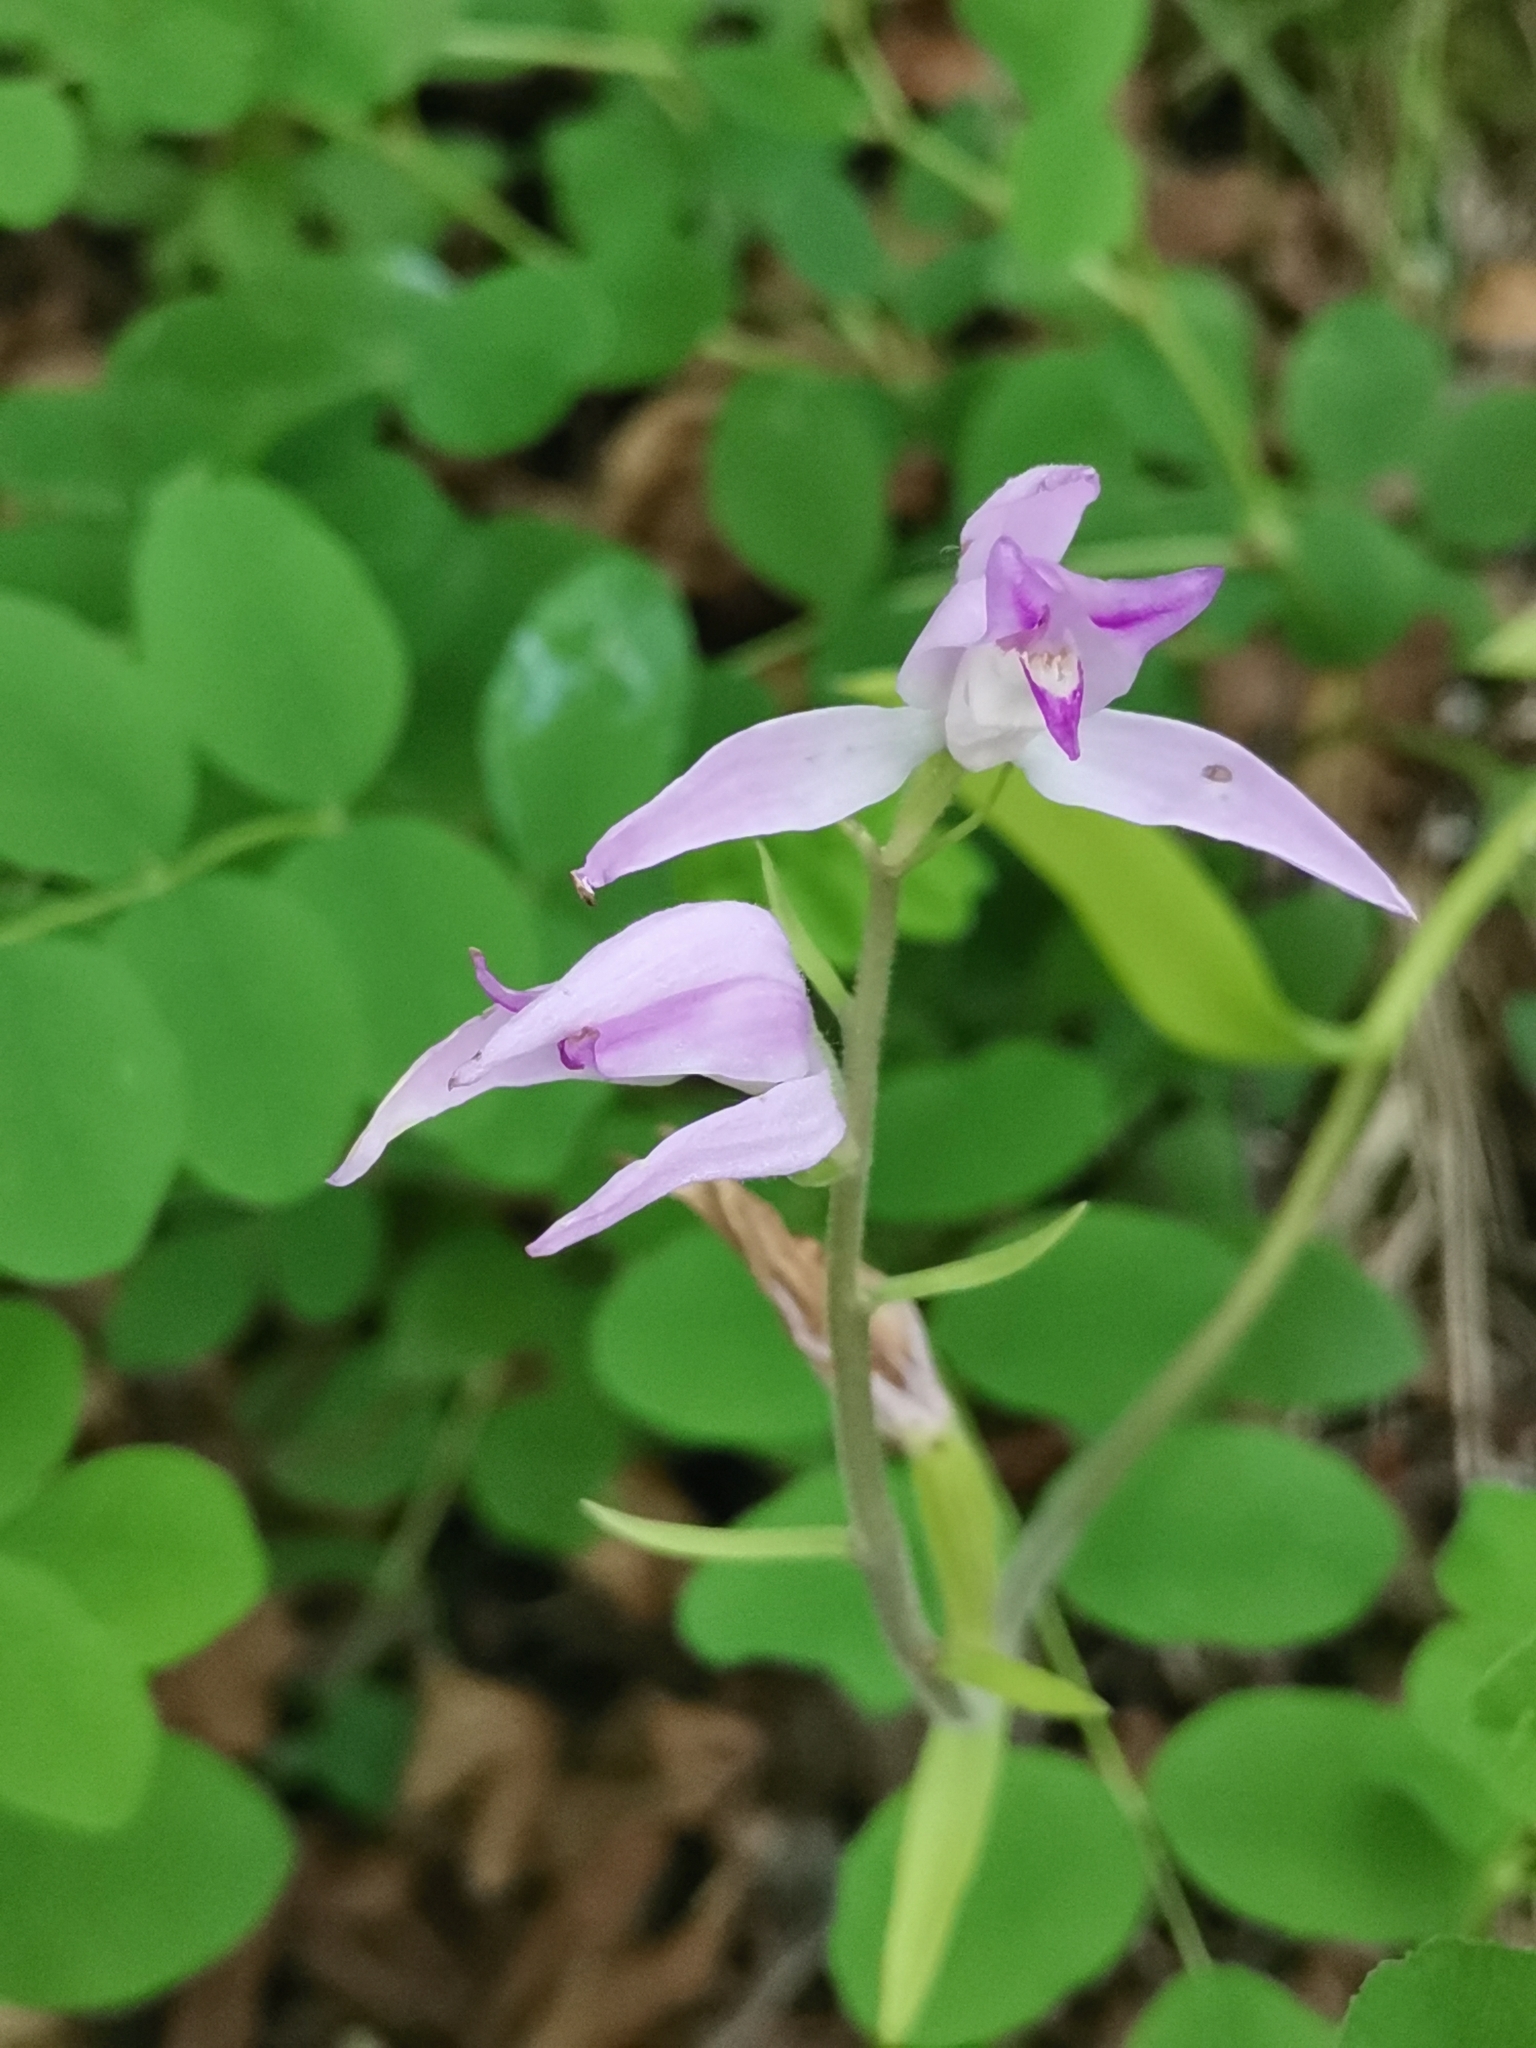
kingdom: Plantae
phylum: Tracheophyta
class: Liliopsida
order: Asparagales
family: Orchidaceae
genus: Cephalanthera
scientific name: Cephalanthera rubra
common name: Red helleborine
